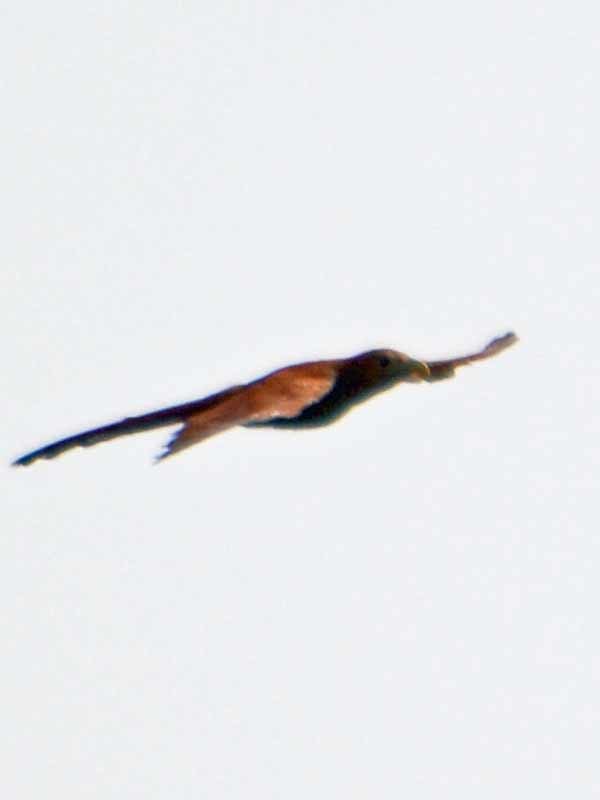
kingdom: Animalia
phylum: Chordata
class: Aves
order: Cuculiformes
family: Cuculidae
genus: Piaya
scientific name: Piaya cayana
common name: Squirrel cuckoo
